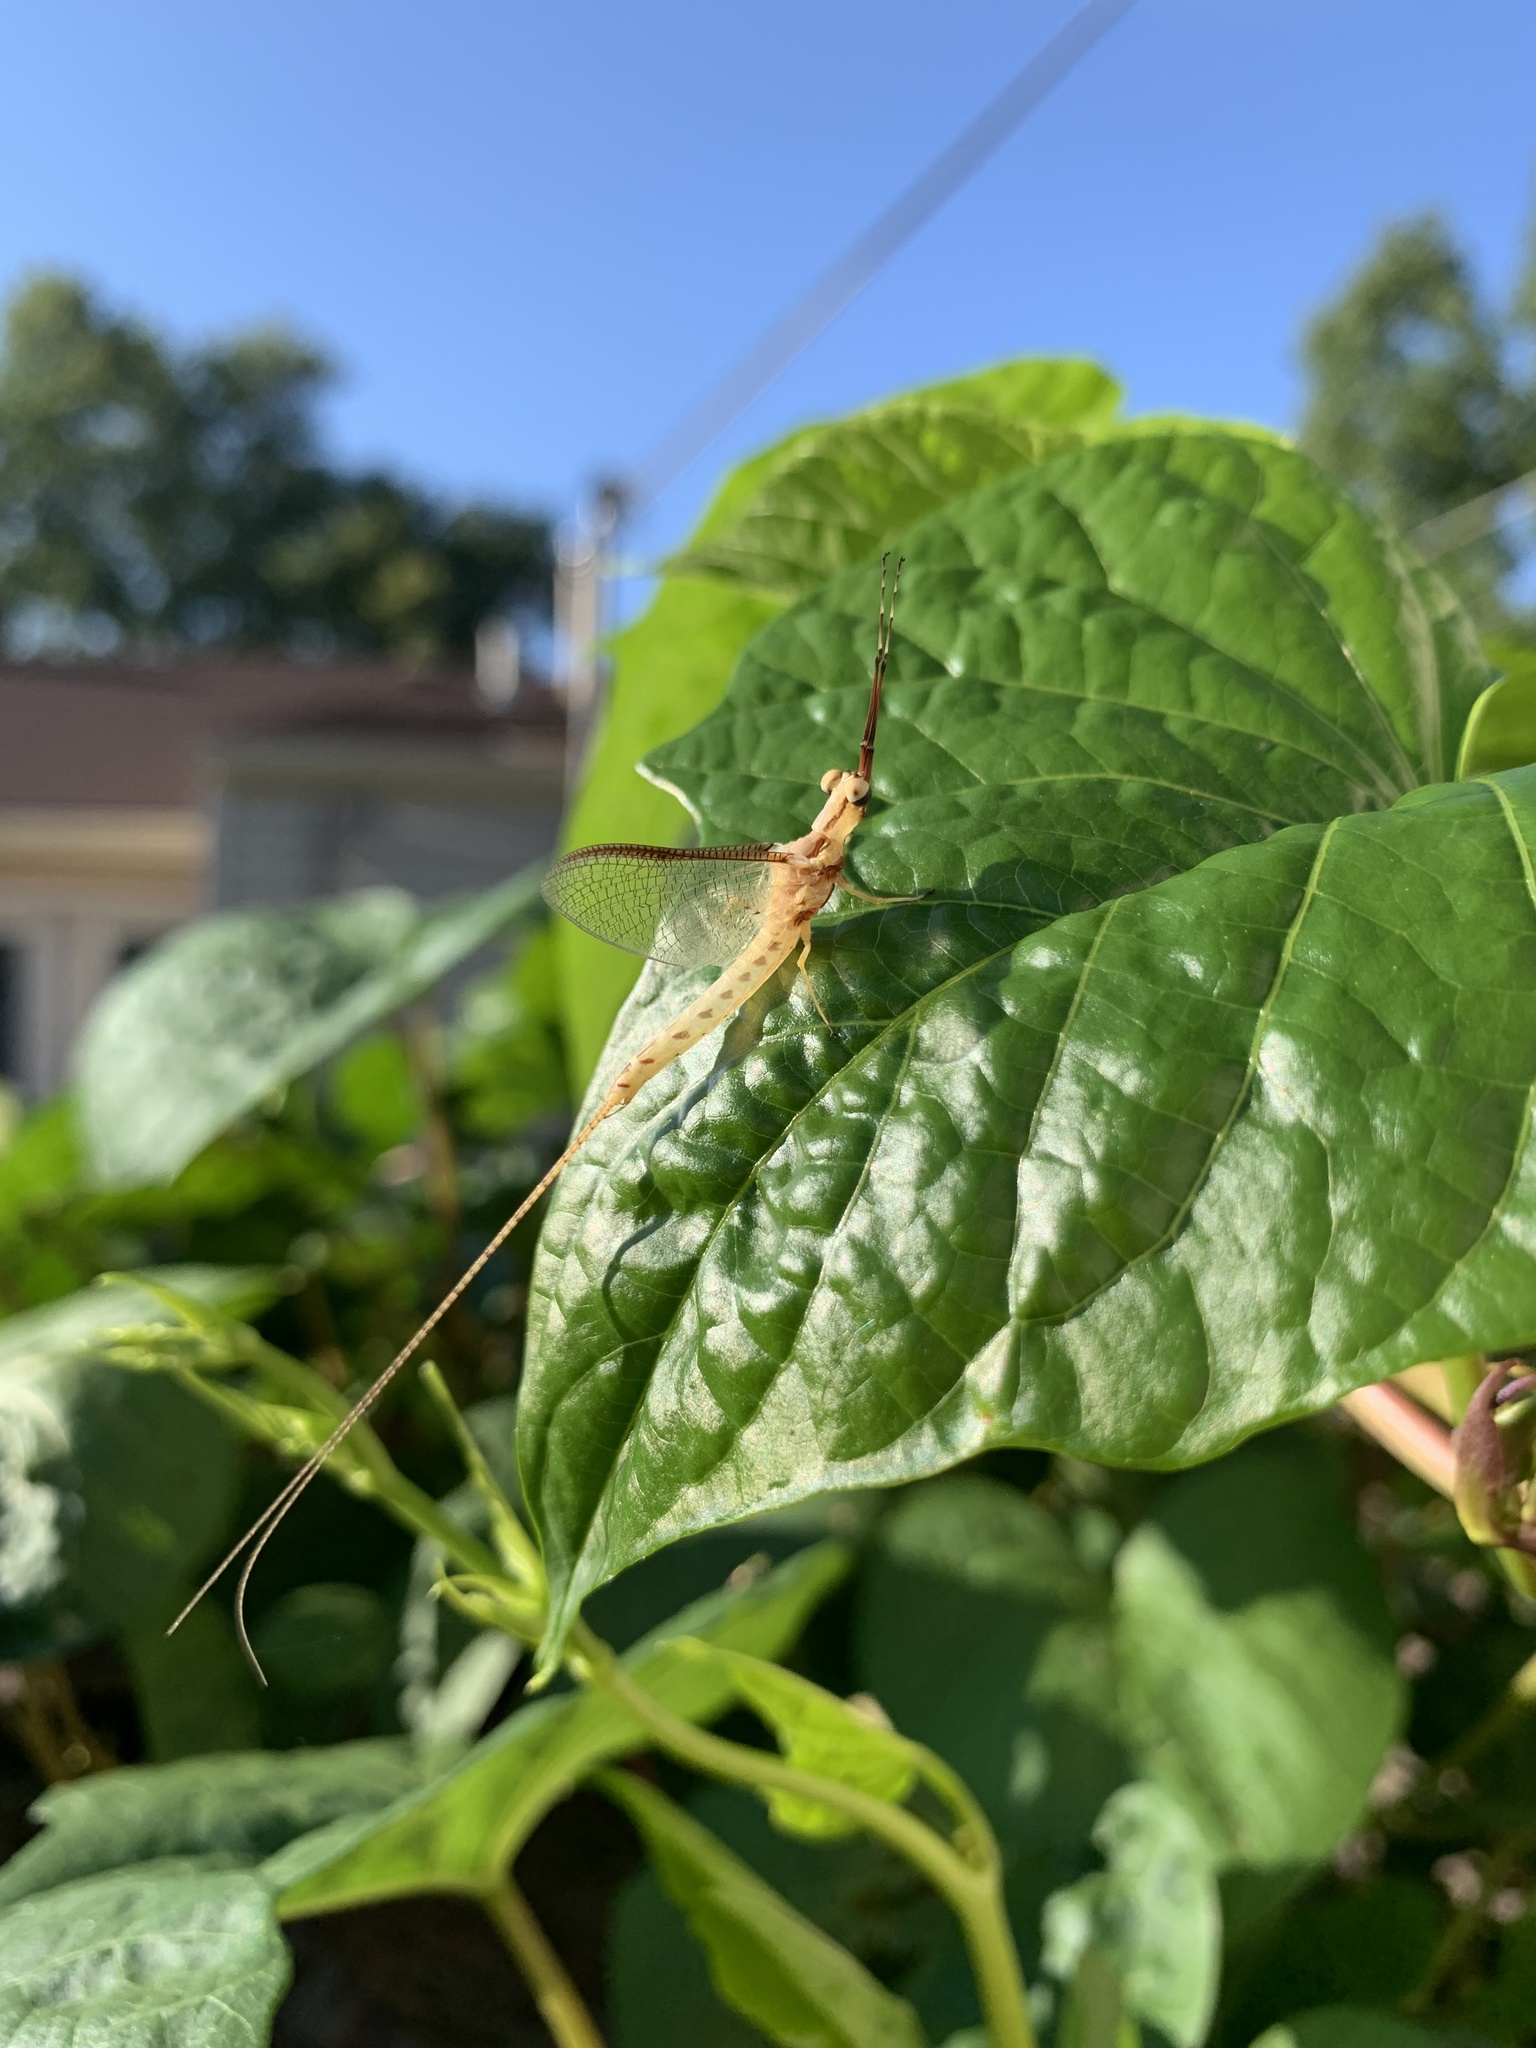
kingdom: Animalia
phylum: Arthropoda
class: Insecta
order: Ephemeroptera
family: Ephemeridae
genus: Hexagenia
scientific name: Hexagenia limbata
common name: Giant mayfly
